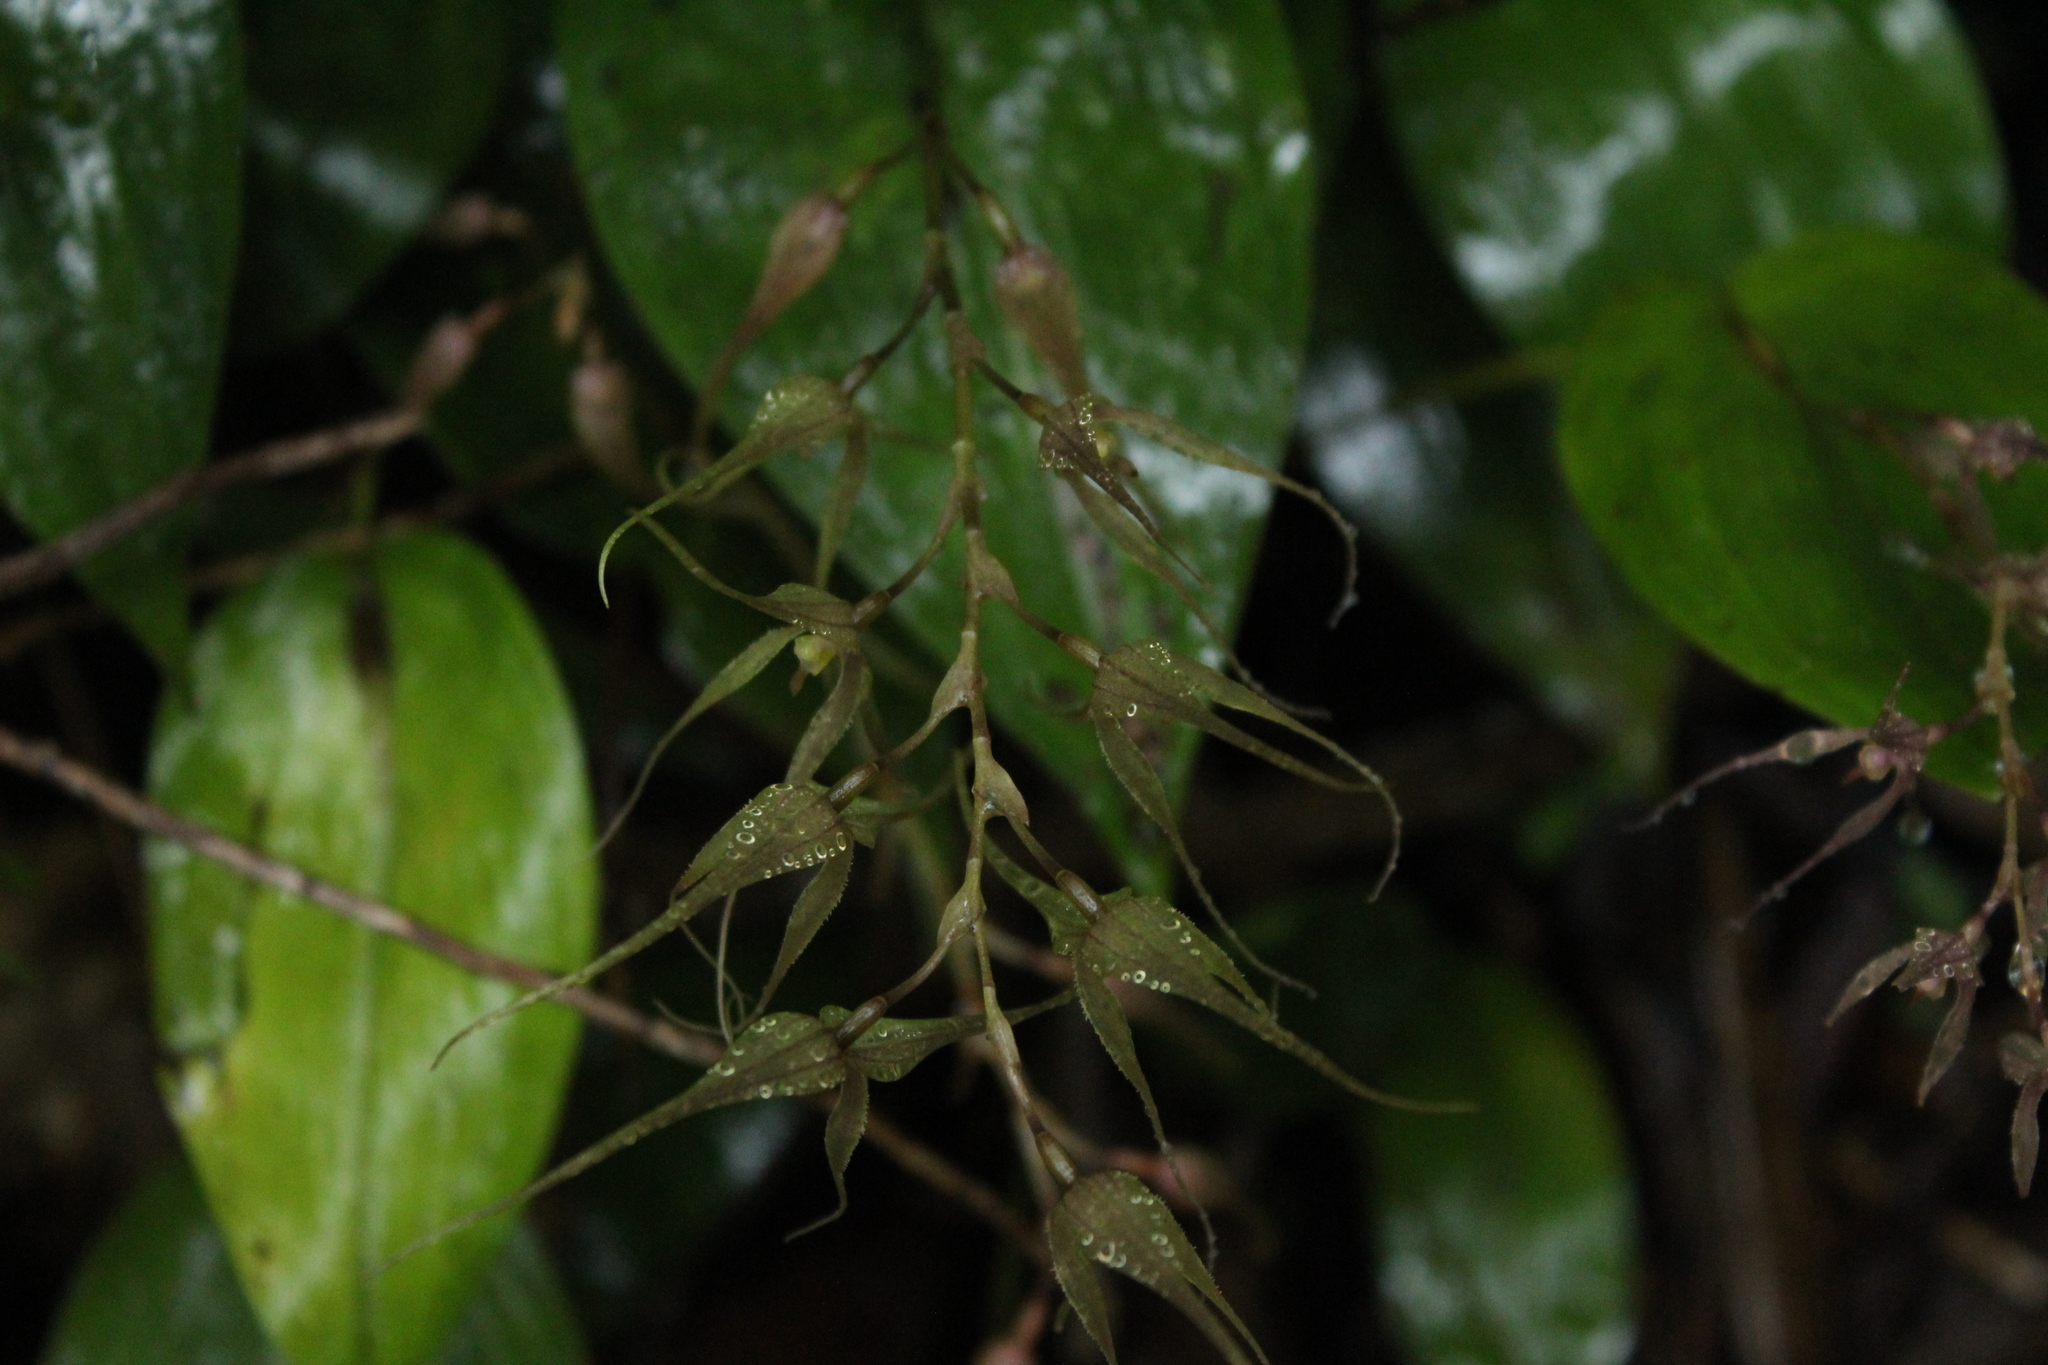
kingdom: Plantae
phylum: Tracheophyta
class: Liliopsida
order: Asparagales
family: Orchidaceae
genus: Pleurothallis
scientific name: Pleurothallis phalangifera
